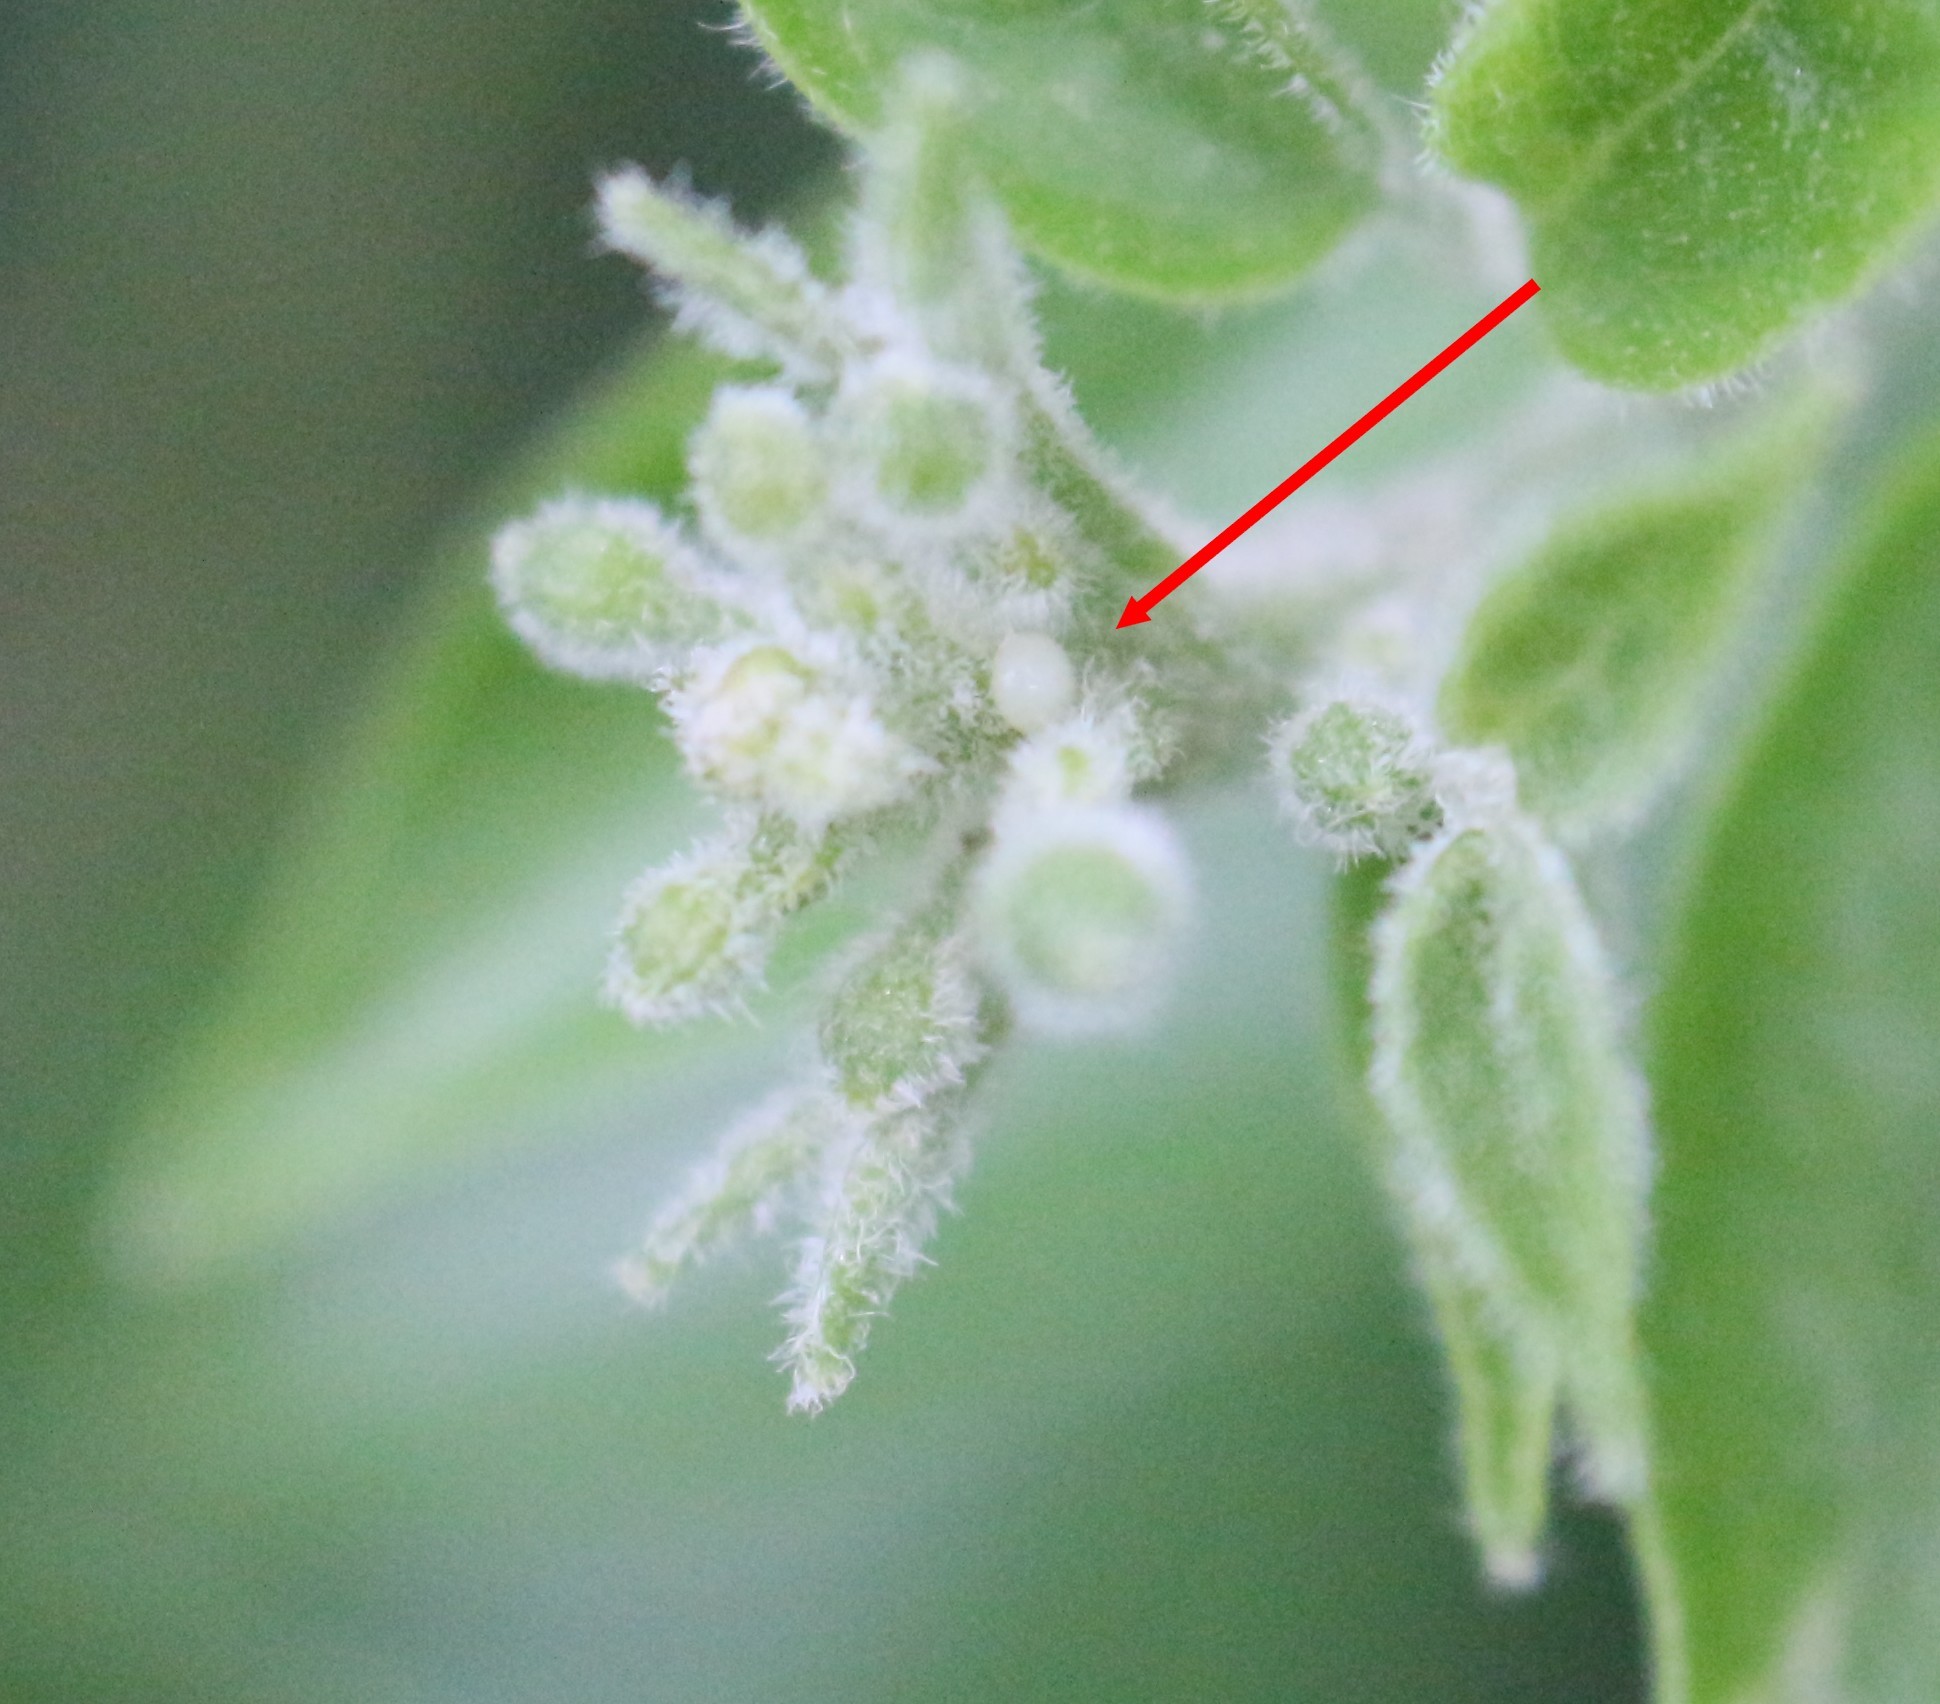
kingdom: Animalia
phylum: Arthropoda
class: Insecta
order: Lepidoptera
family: Lycaenidae
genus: Michaelus
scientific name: Michaelus thordesa
